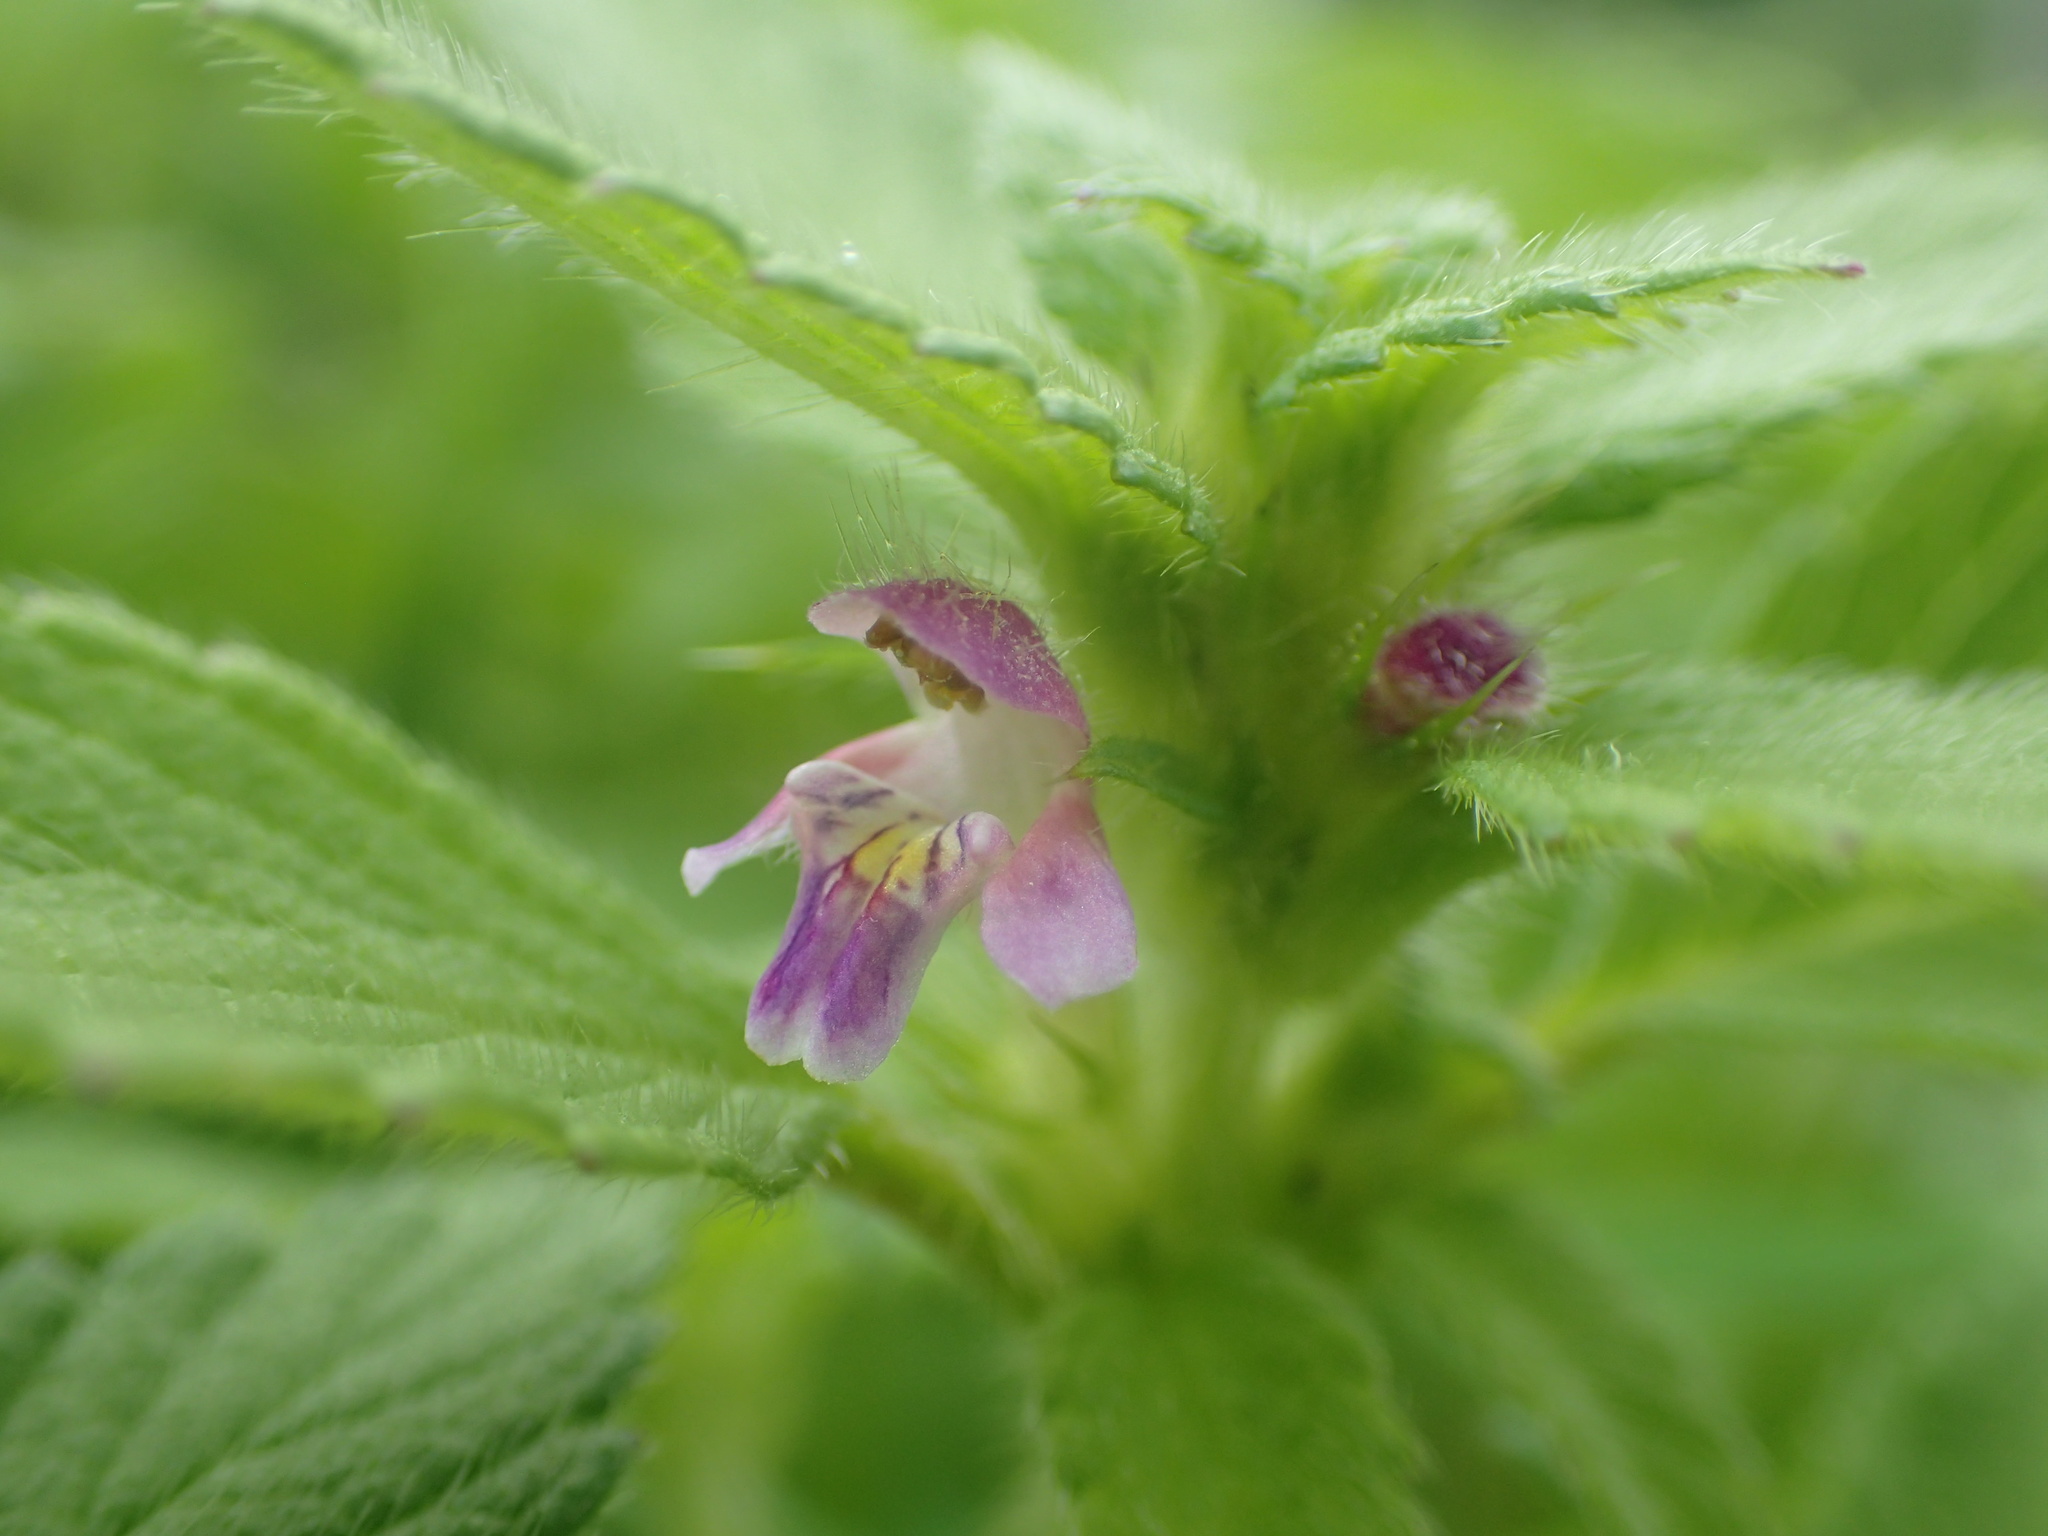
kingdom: Plantae
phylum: Tracheophyta
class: Magnoliopsida
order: Lamiales
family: Lamiaceae
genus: Galeopsis
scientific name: Galeopsis bifida
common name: Bifid hemp-nettle
